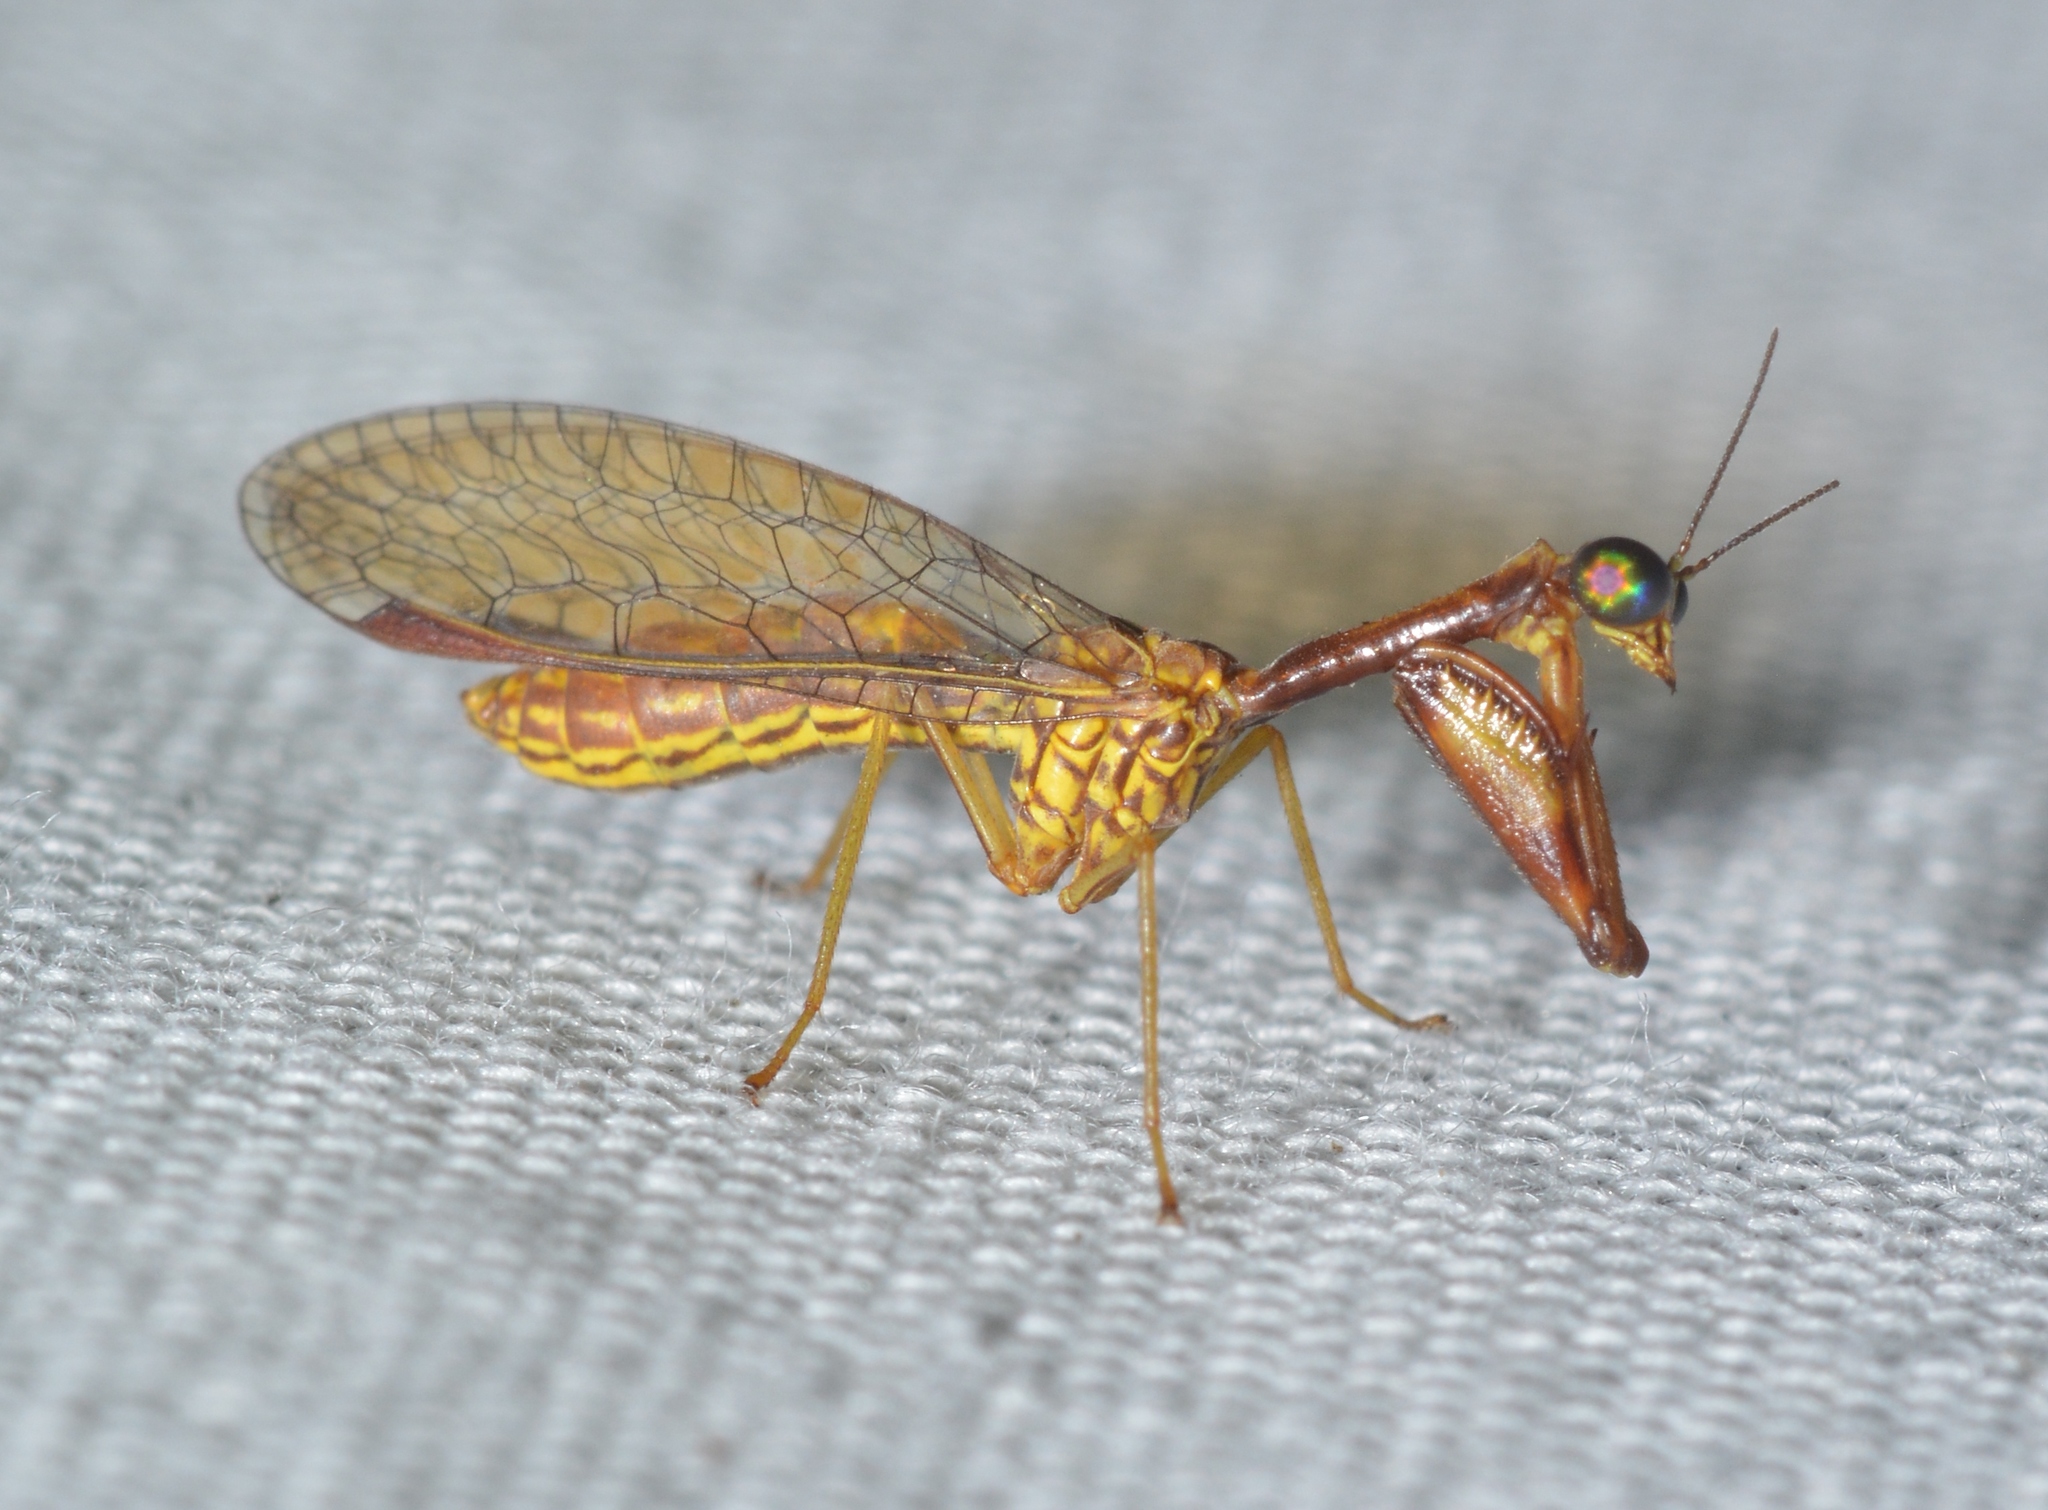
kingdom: Animalia
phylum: Arthropoda
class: Insecta
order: Neuroptera
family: Mantispidae
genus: Leptomantispa
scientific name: Leptomantispa pulchella
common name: Stevens's mantidfly
